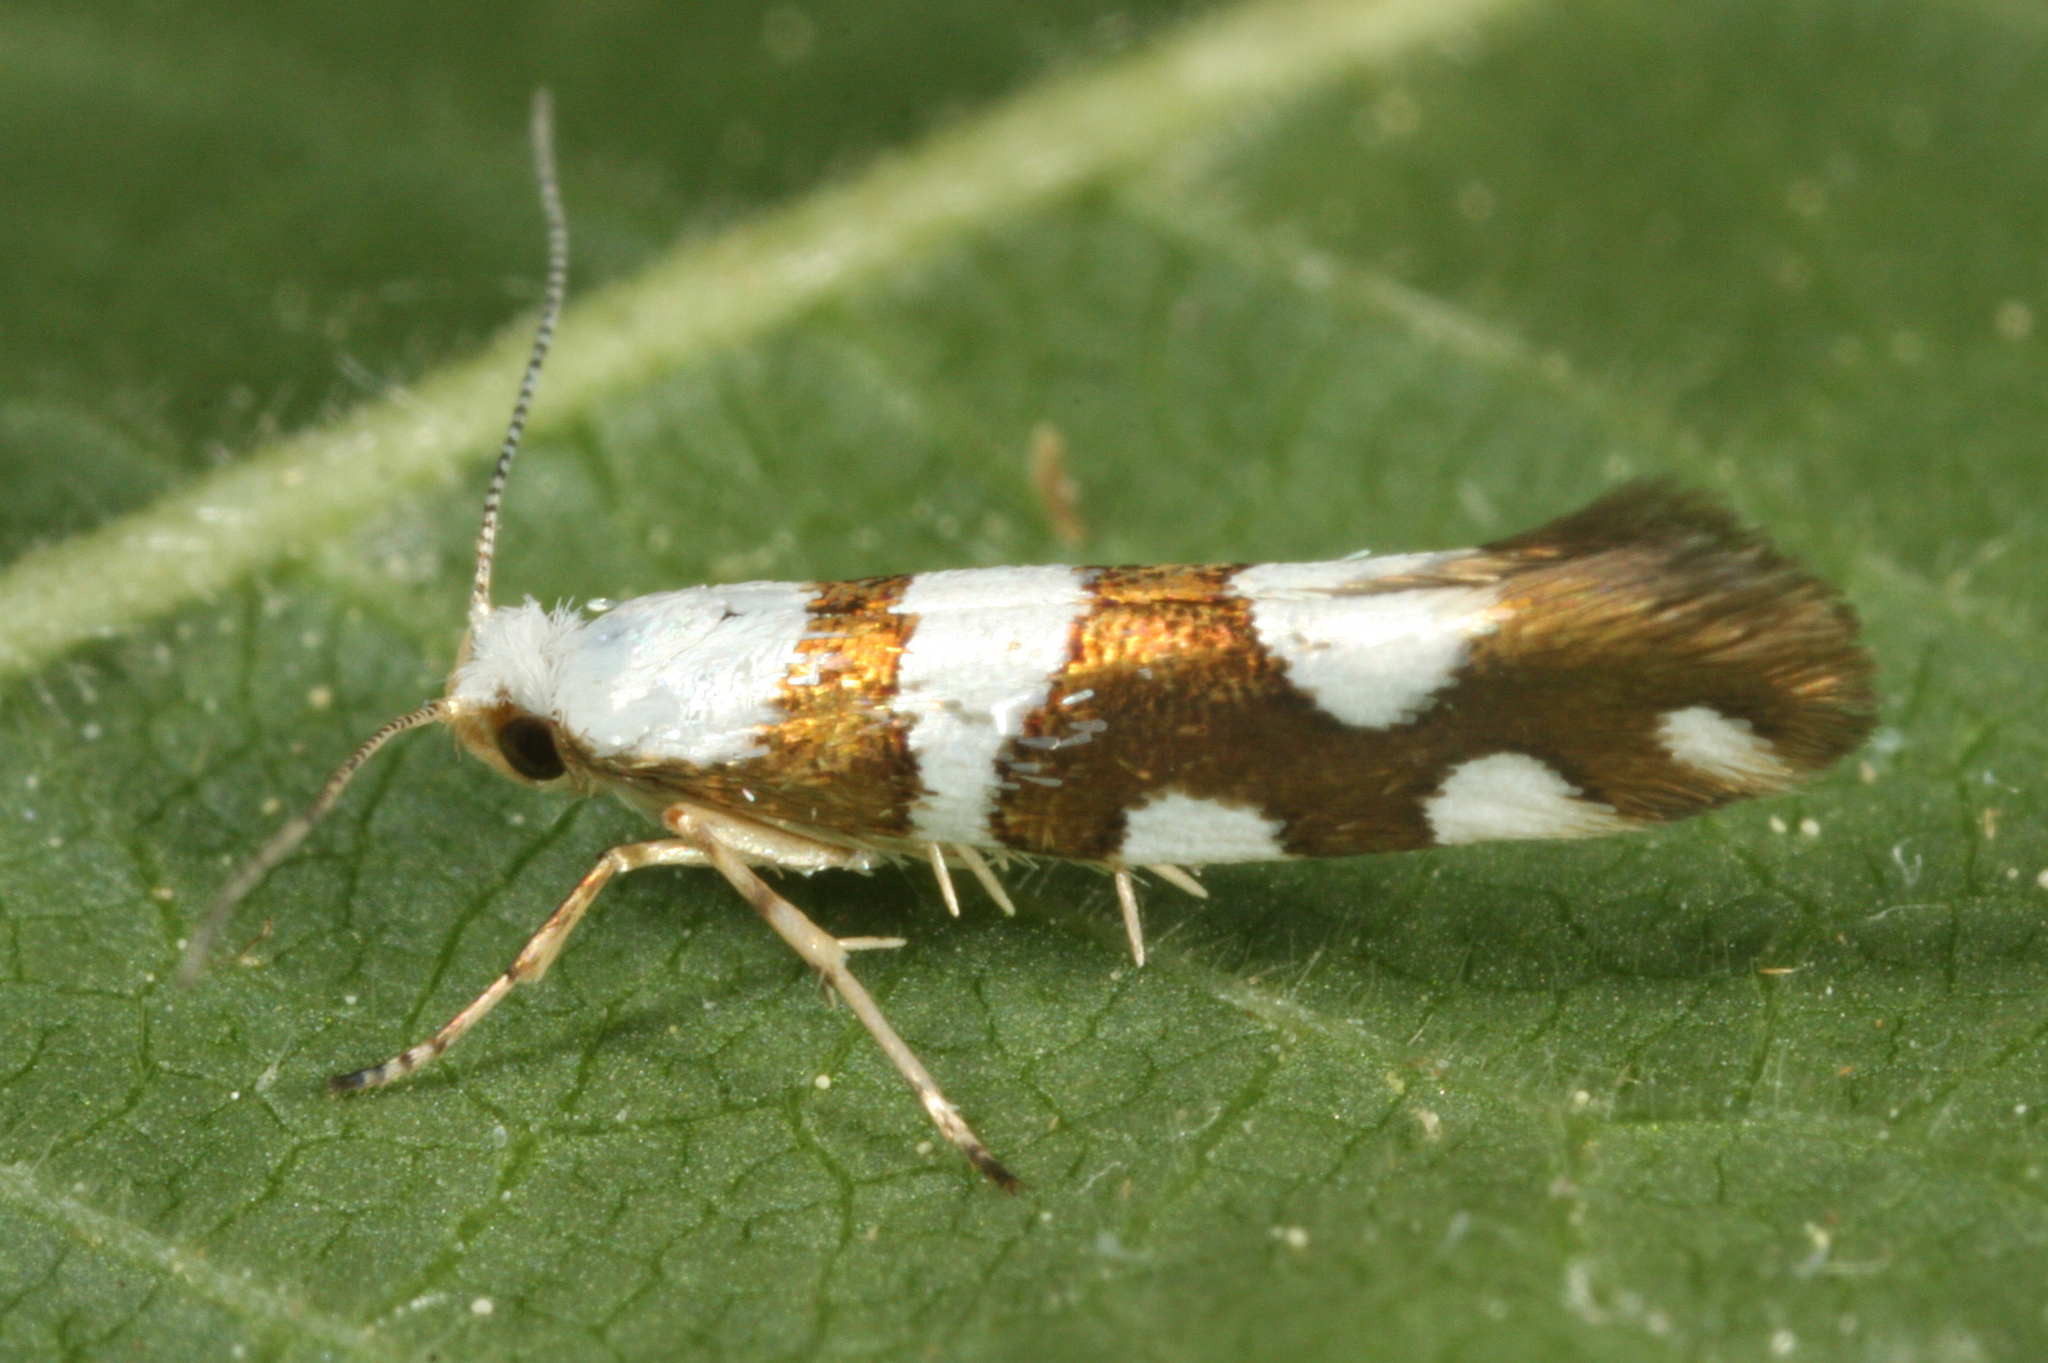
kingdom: Animalia
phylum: Arthropoda
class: Insecta
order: Lepidoptera
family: Argyresthiidae
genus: Argyresthia
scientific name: Argyresthia brockeella
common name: Gold-ribbon argent
